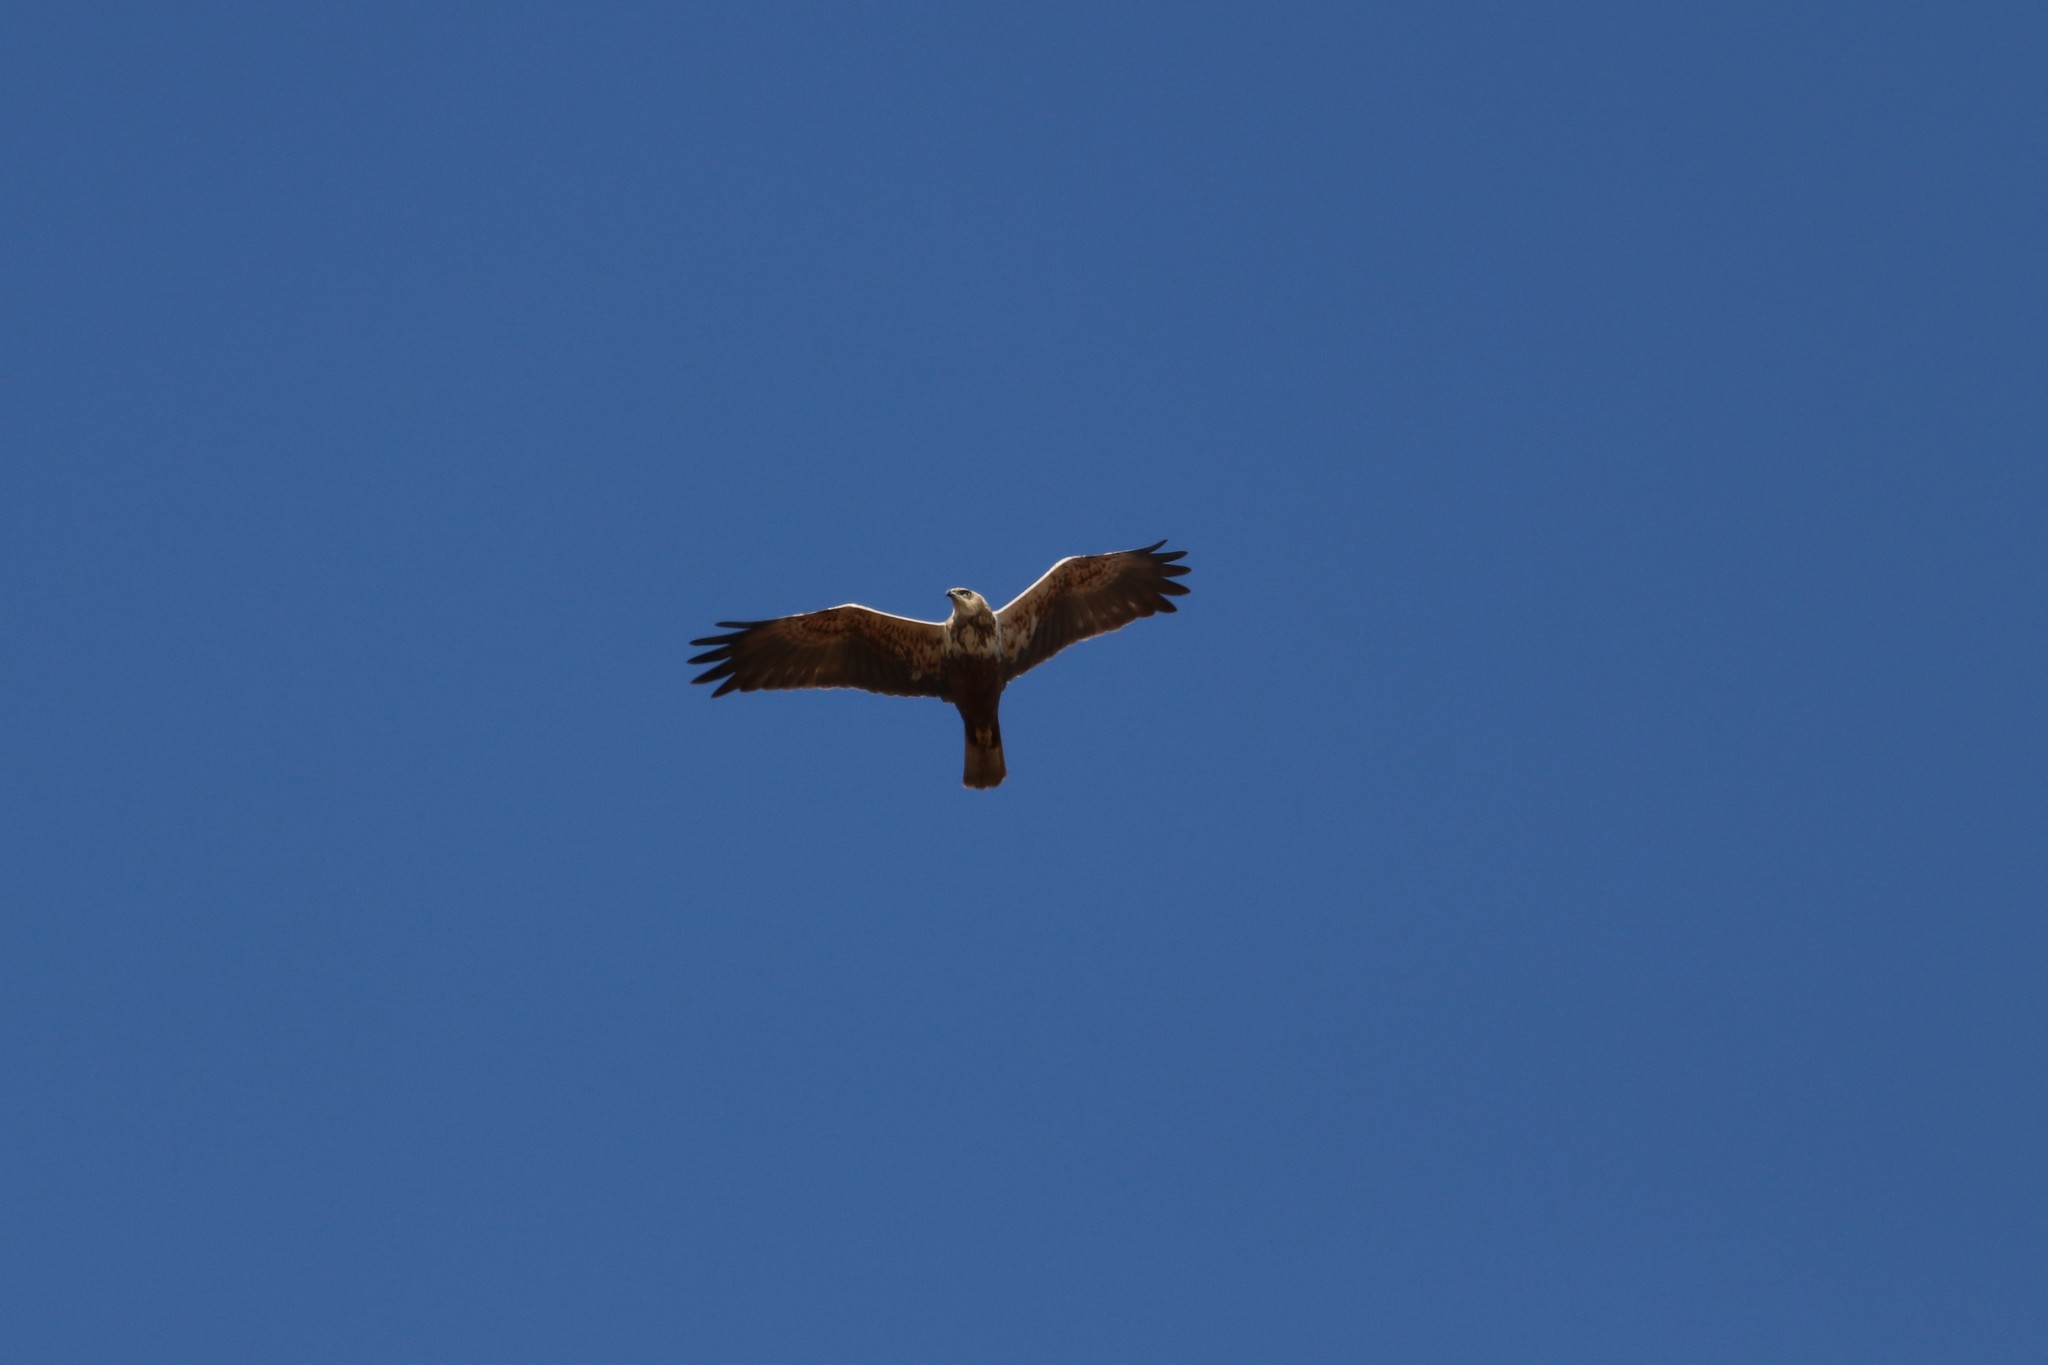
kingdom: Animalia
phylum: Chordata
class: Aves
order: Accipitriformes
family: Accipitridae
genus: Circus
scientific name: Circus aeruginosus
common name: Western marsh harrier
